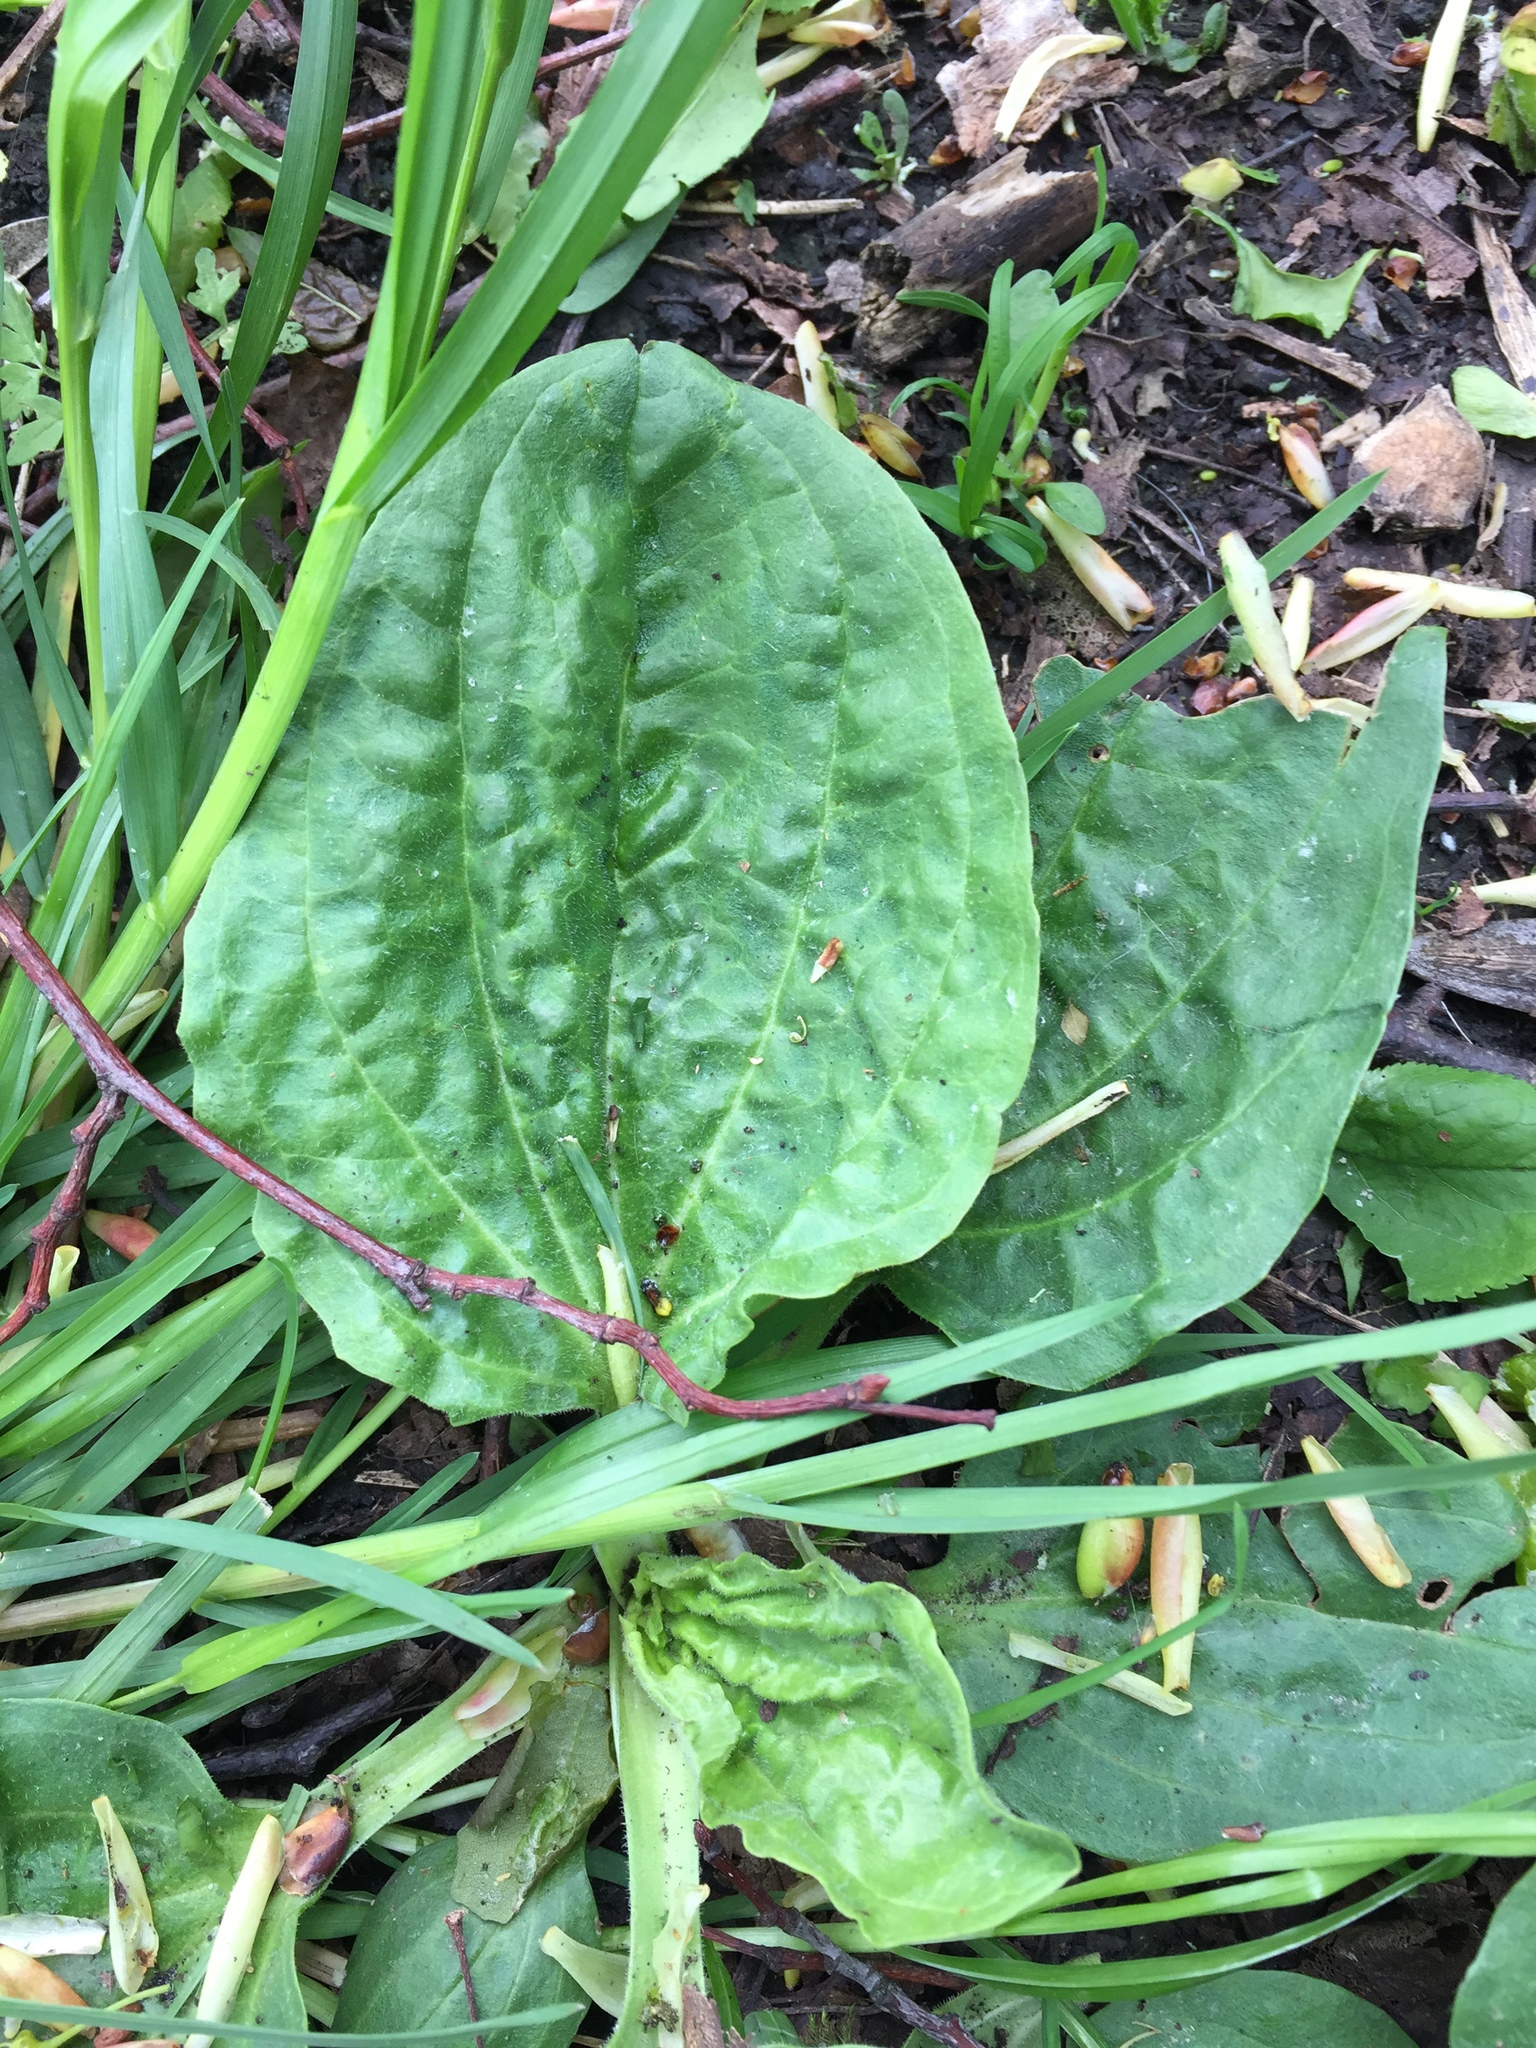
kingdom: Plantae
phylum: Tracheophyta
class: Magnoliopsida
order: Lamiales
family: Plantaginaceae
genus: Plantago
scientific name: Plantago major
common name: Common plantain
